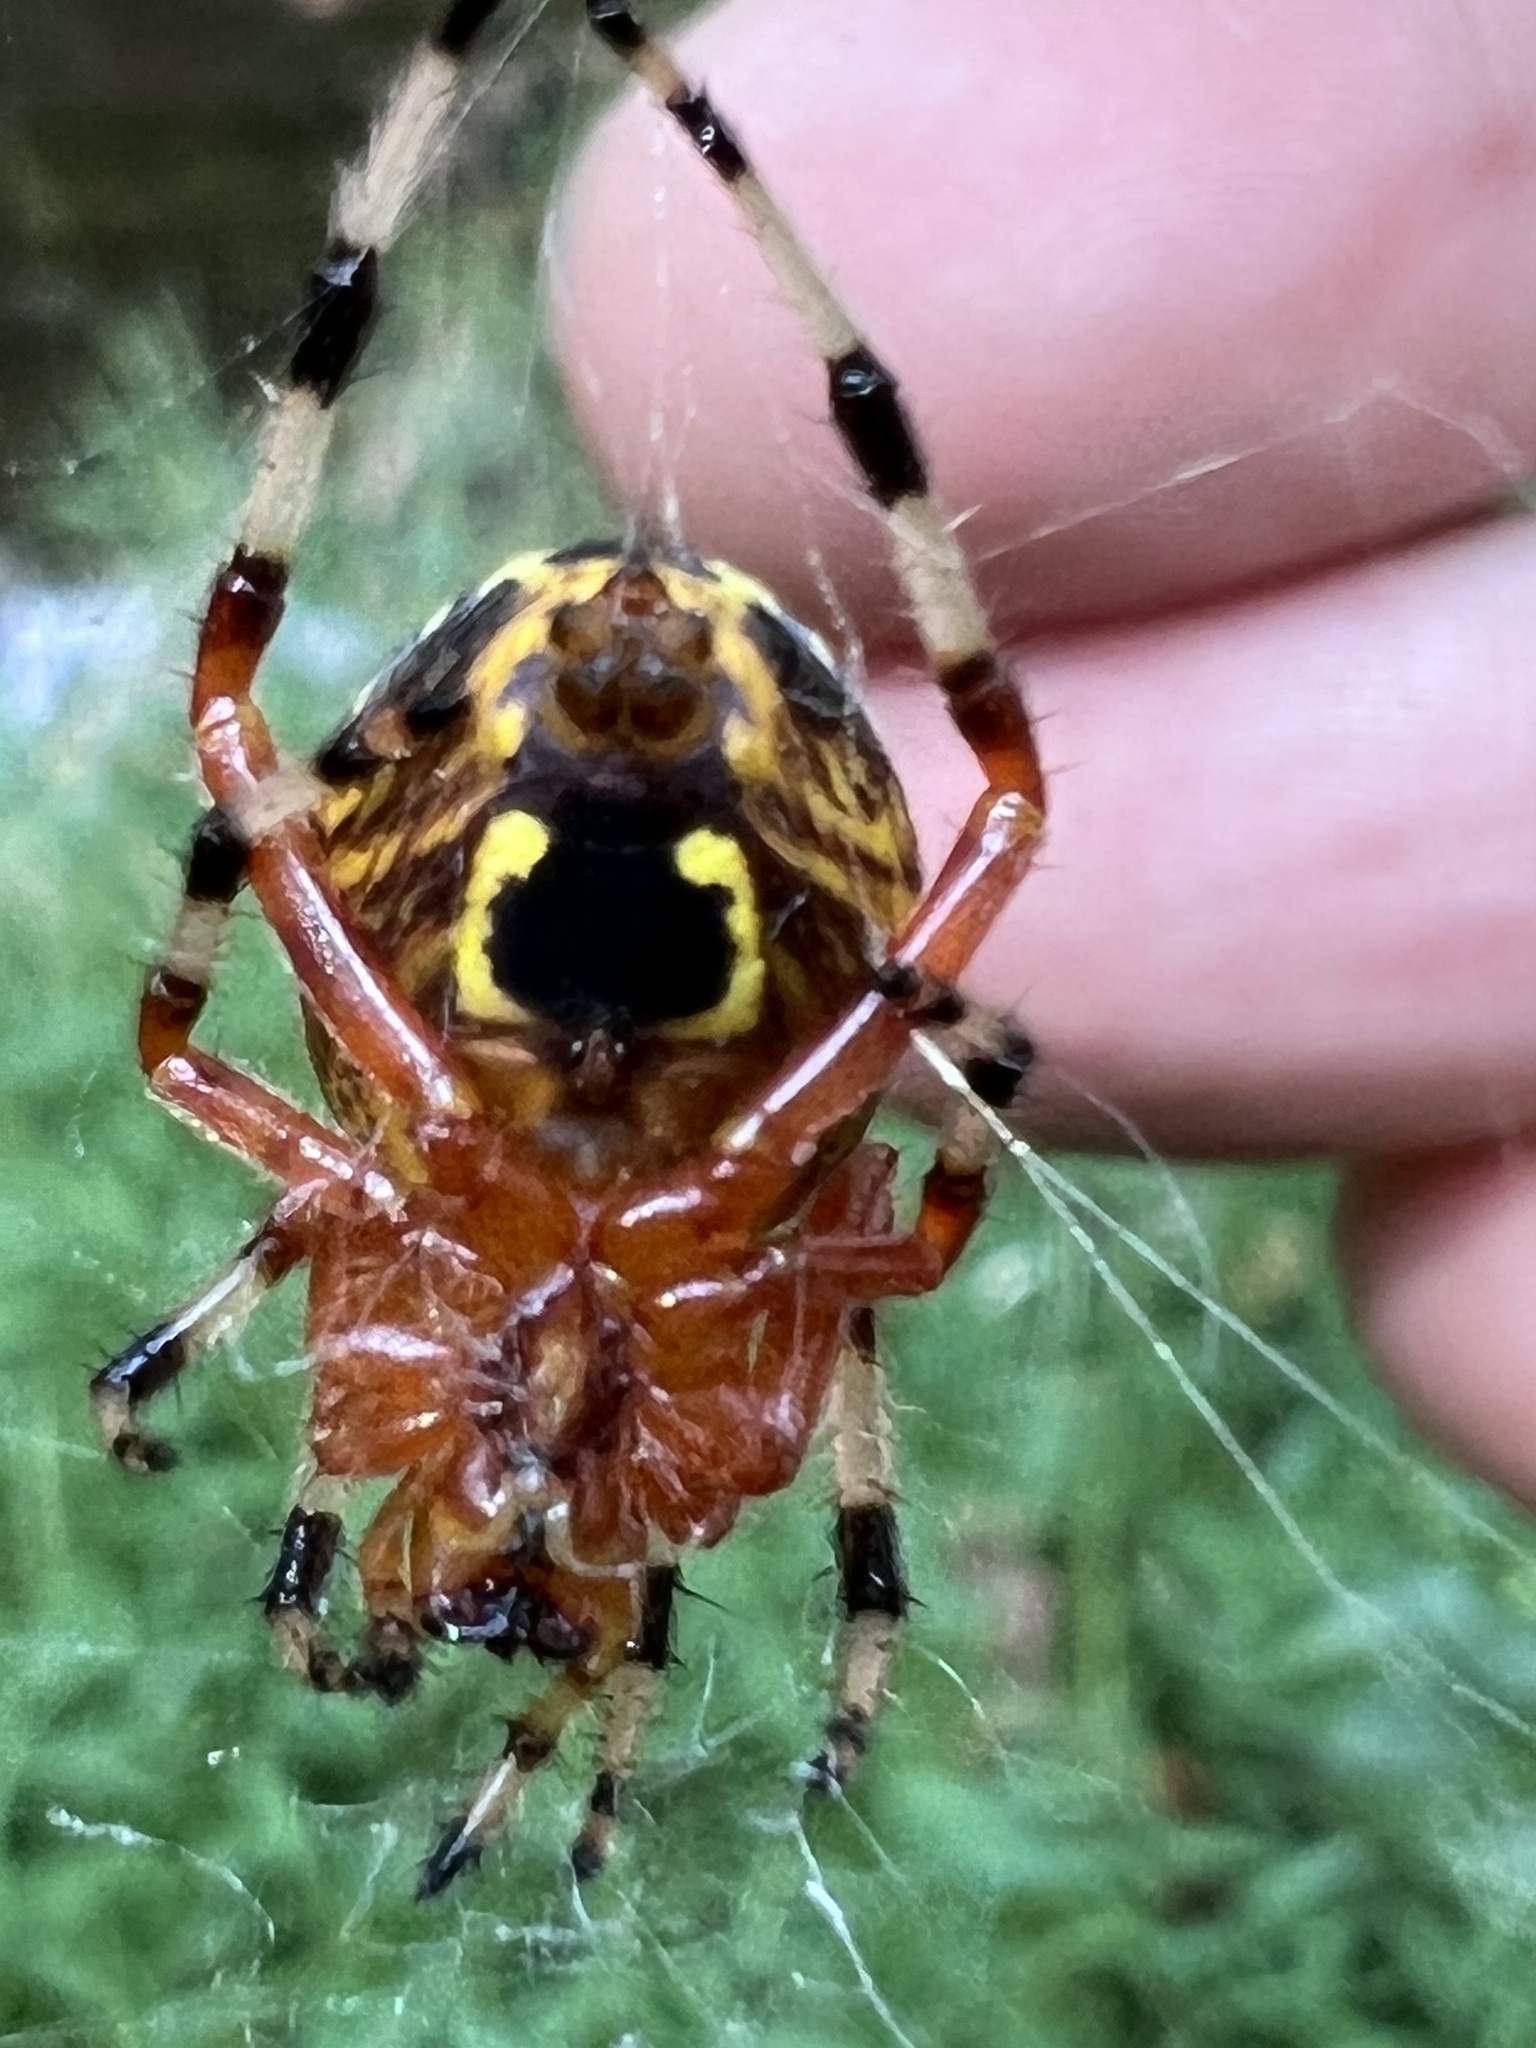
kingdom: Animalia
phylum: Arthropoda
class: Arachnida
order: Araneae
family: Araneidae
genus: Araneus
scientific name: Araneus marmoreus
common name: Marbled orbweaver
